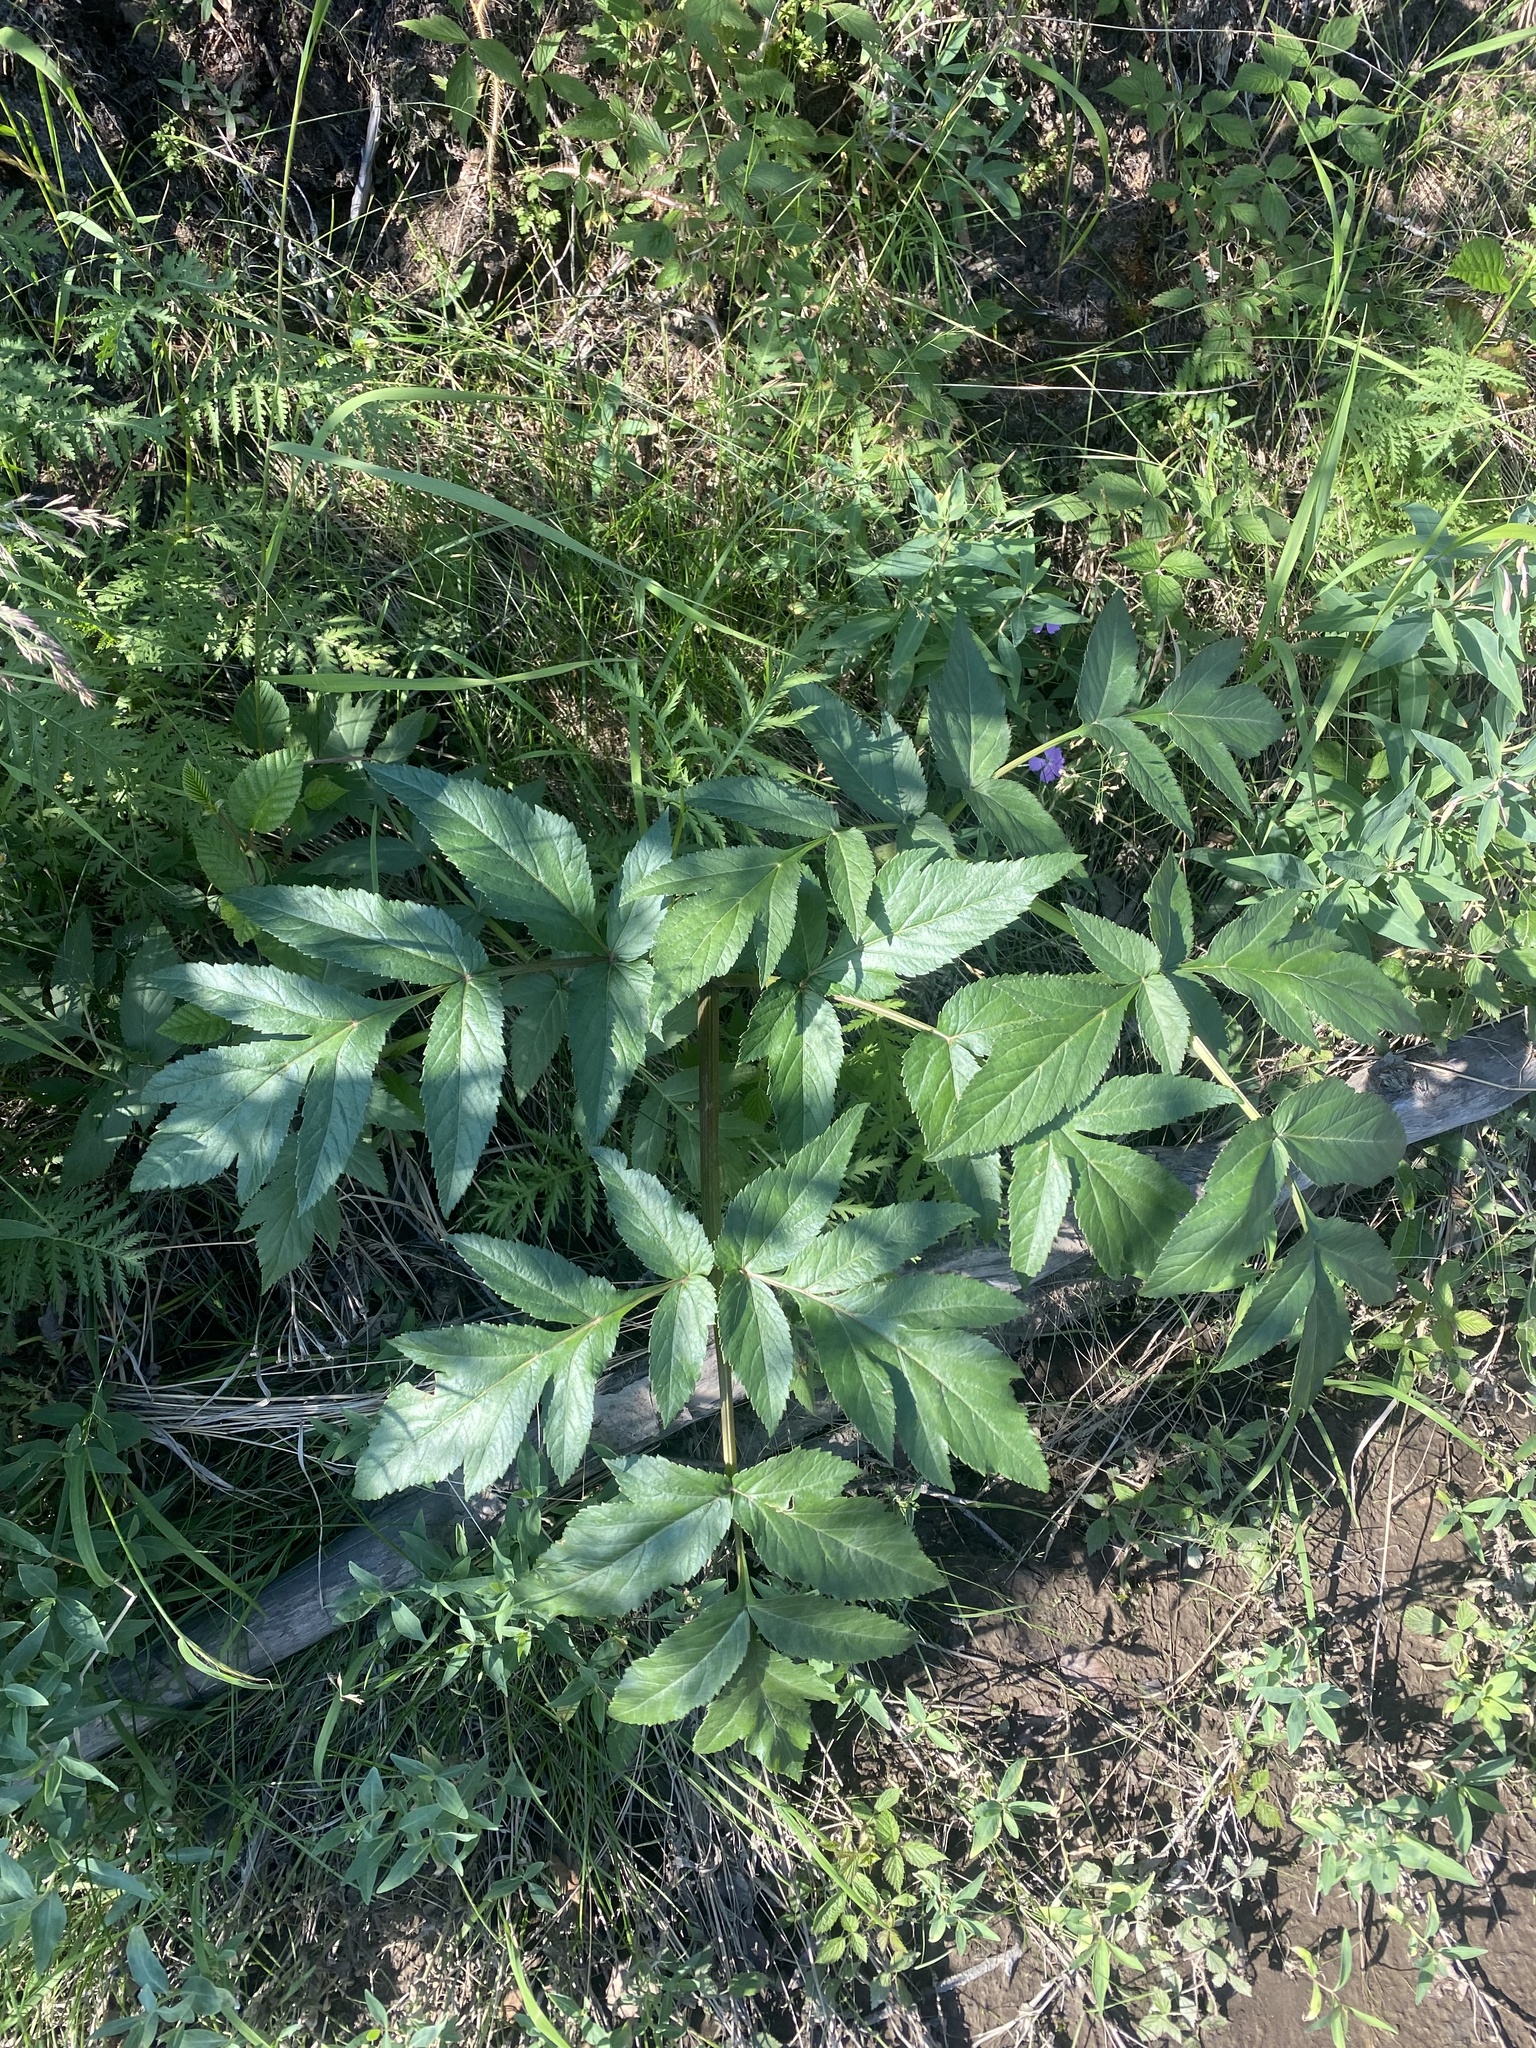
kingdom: Plantae
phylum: Tracheophyta
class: Magnoliopsida
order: Apiales
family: Apiaceae
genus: Angelica
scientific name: Angelica decurrens
